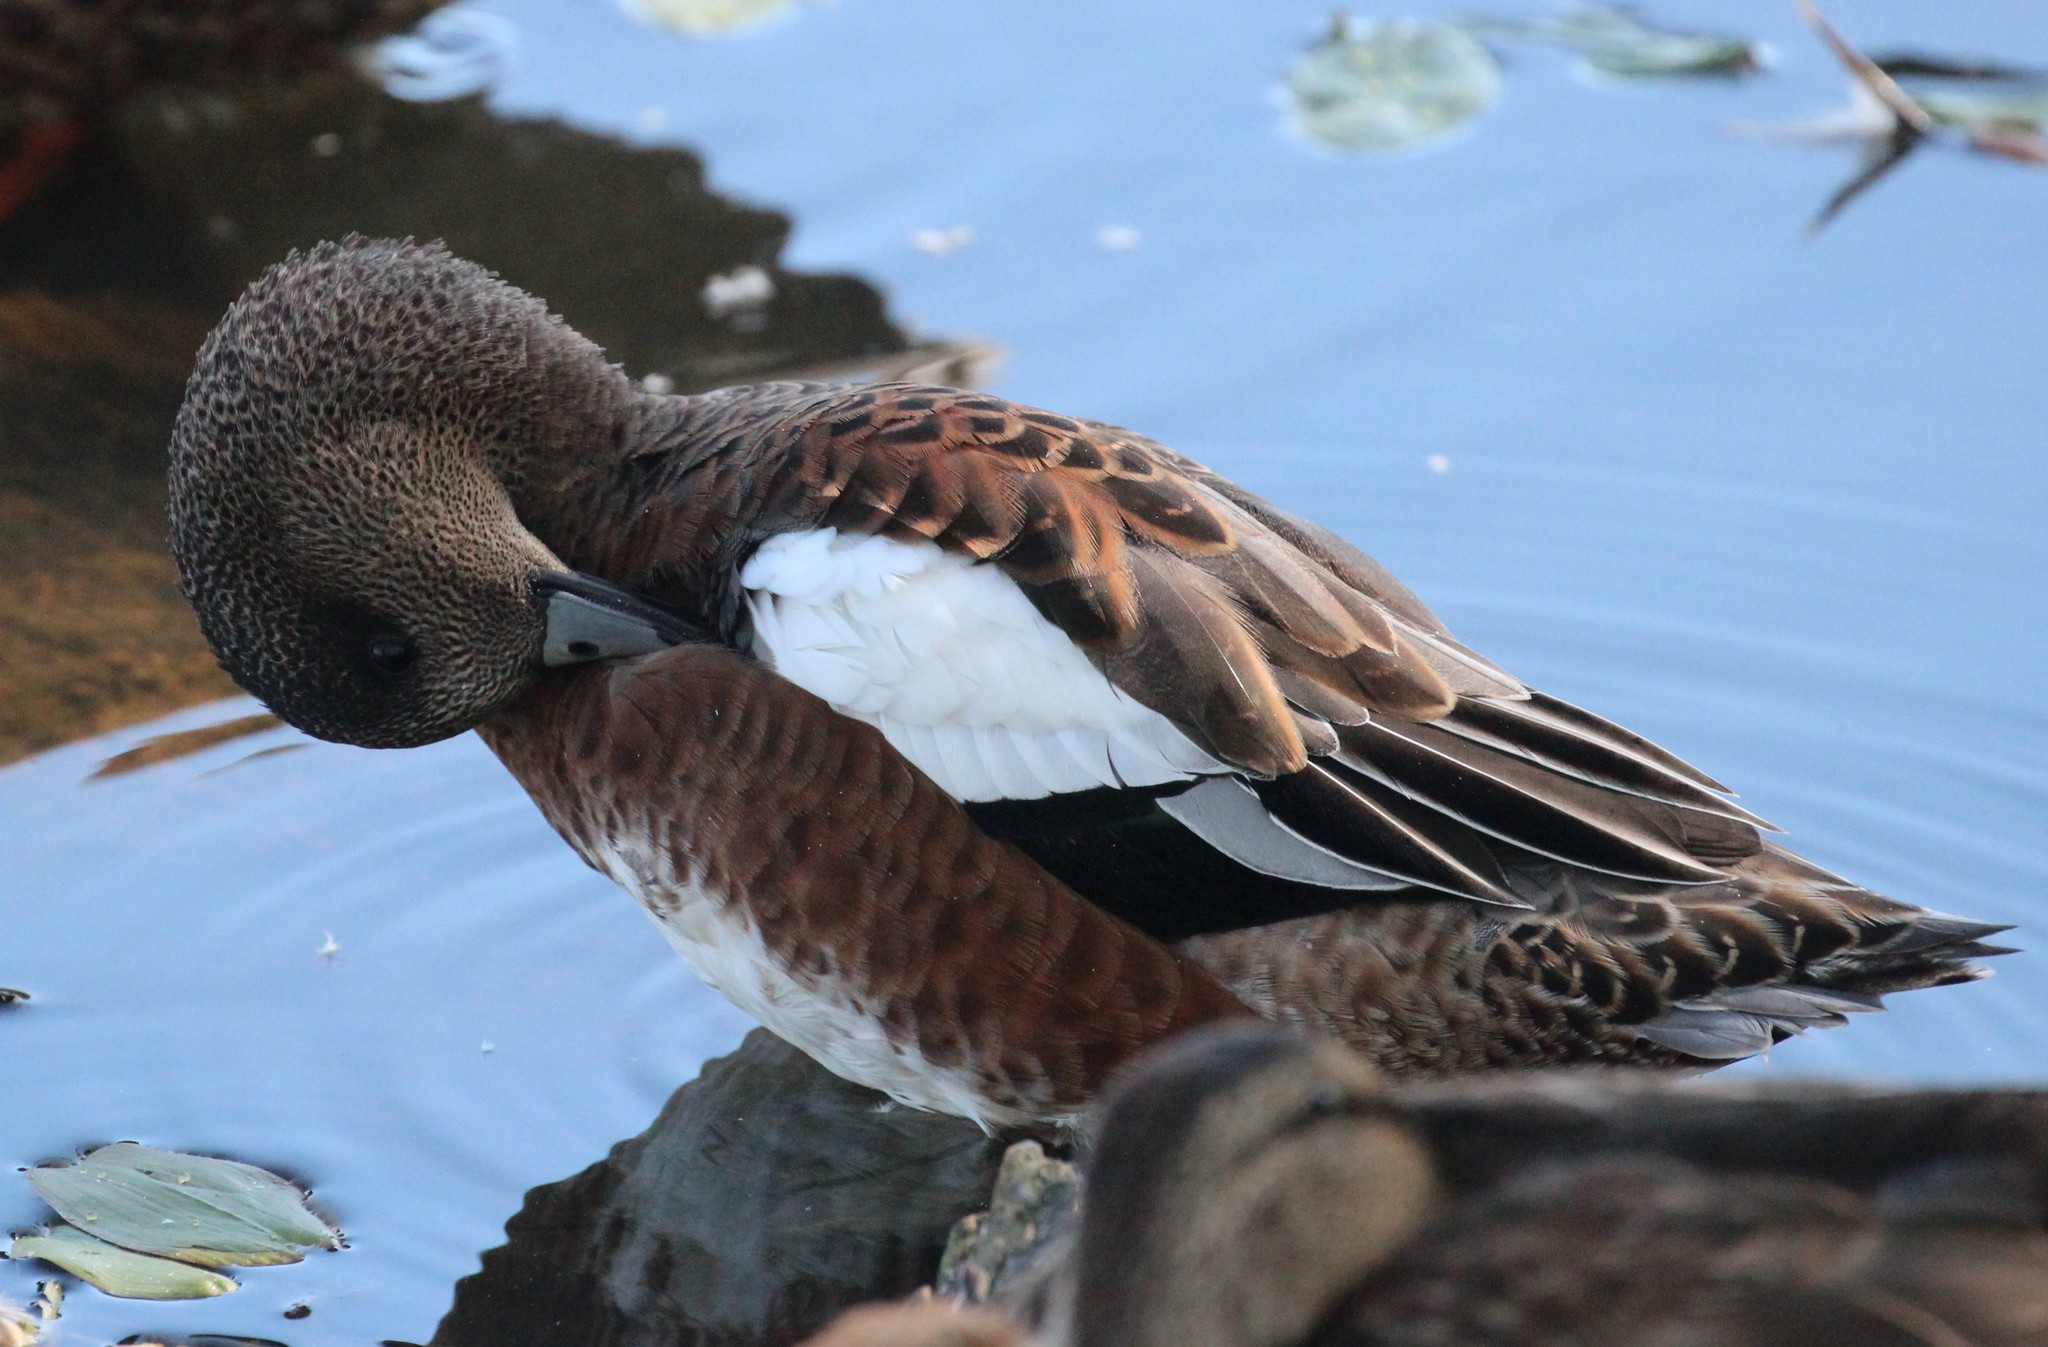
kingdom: Animalia
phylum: Chordata
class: Aves
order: Anseriformes
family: Anatidae
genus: Mareca
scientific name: Mareca americana
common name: American wigeon
